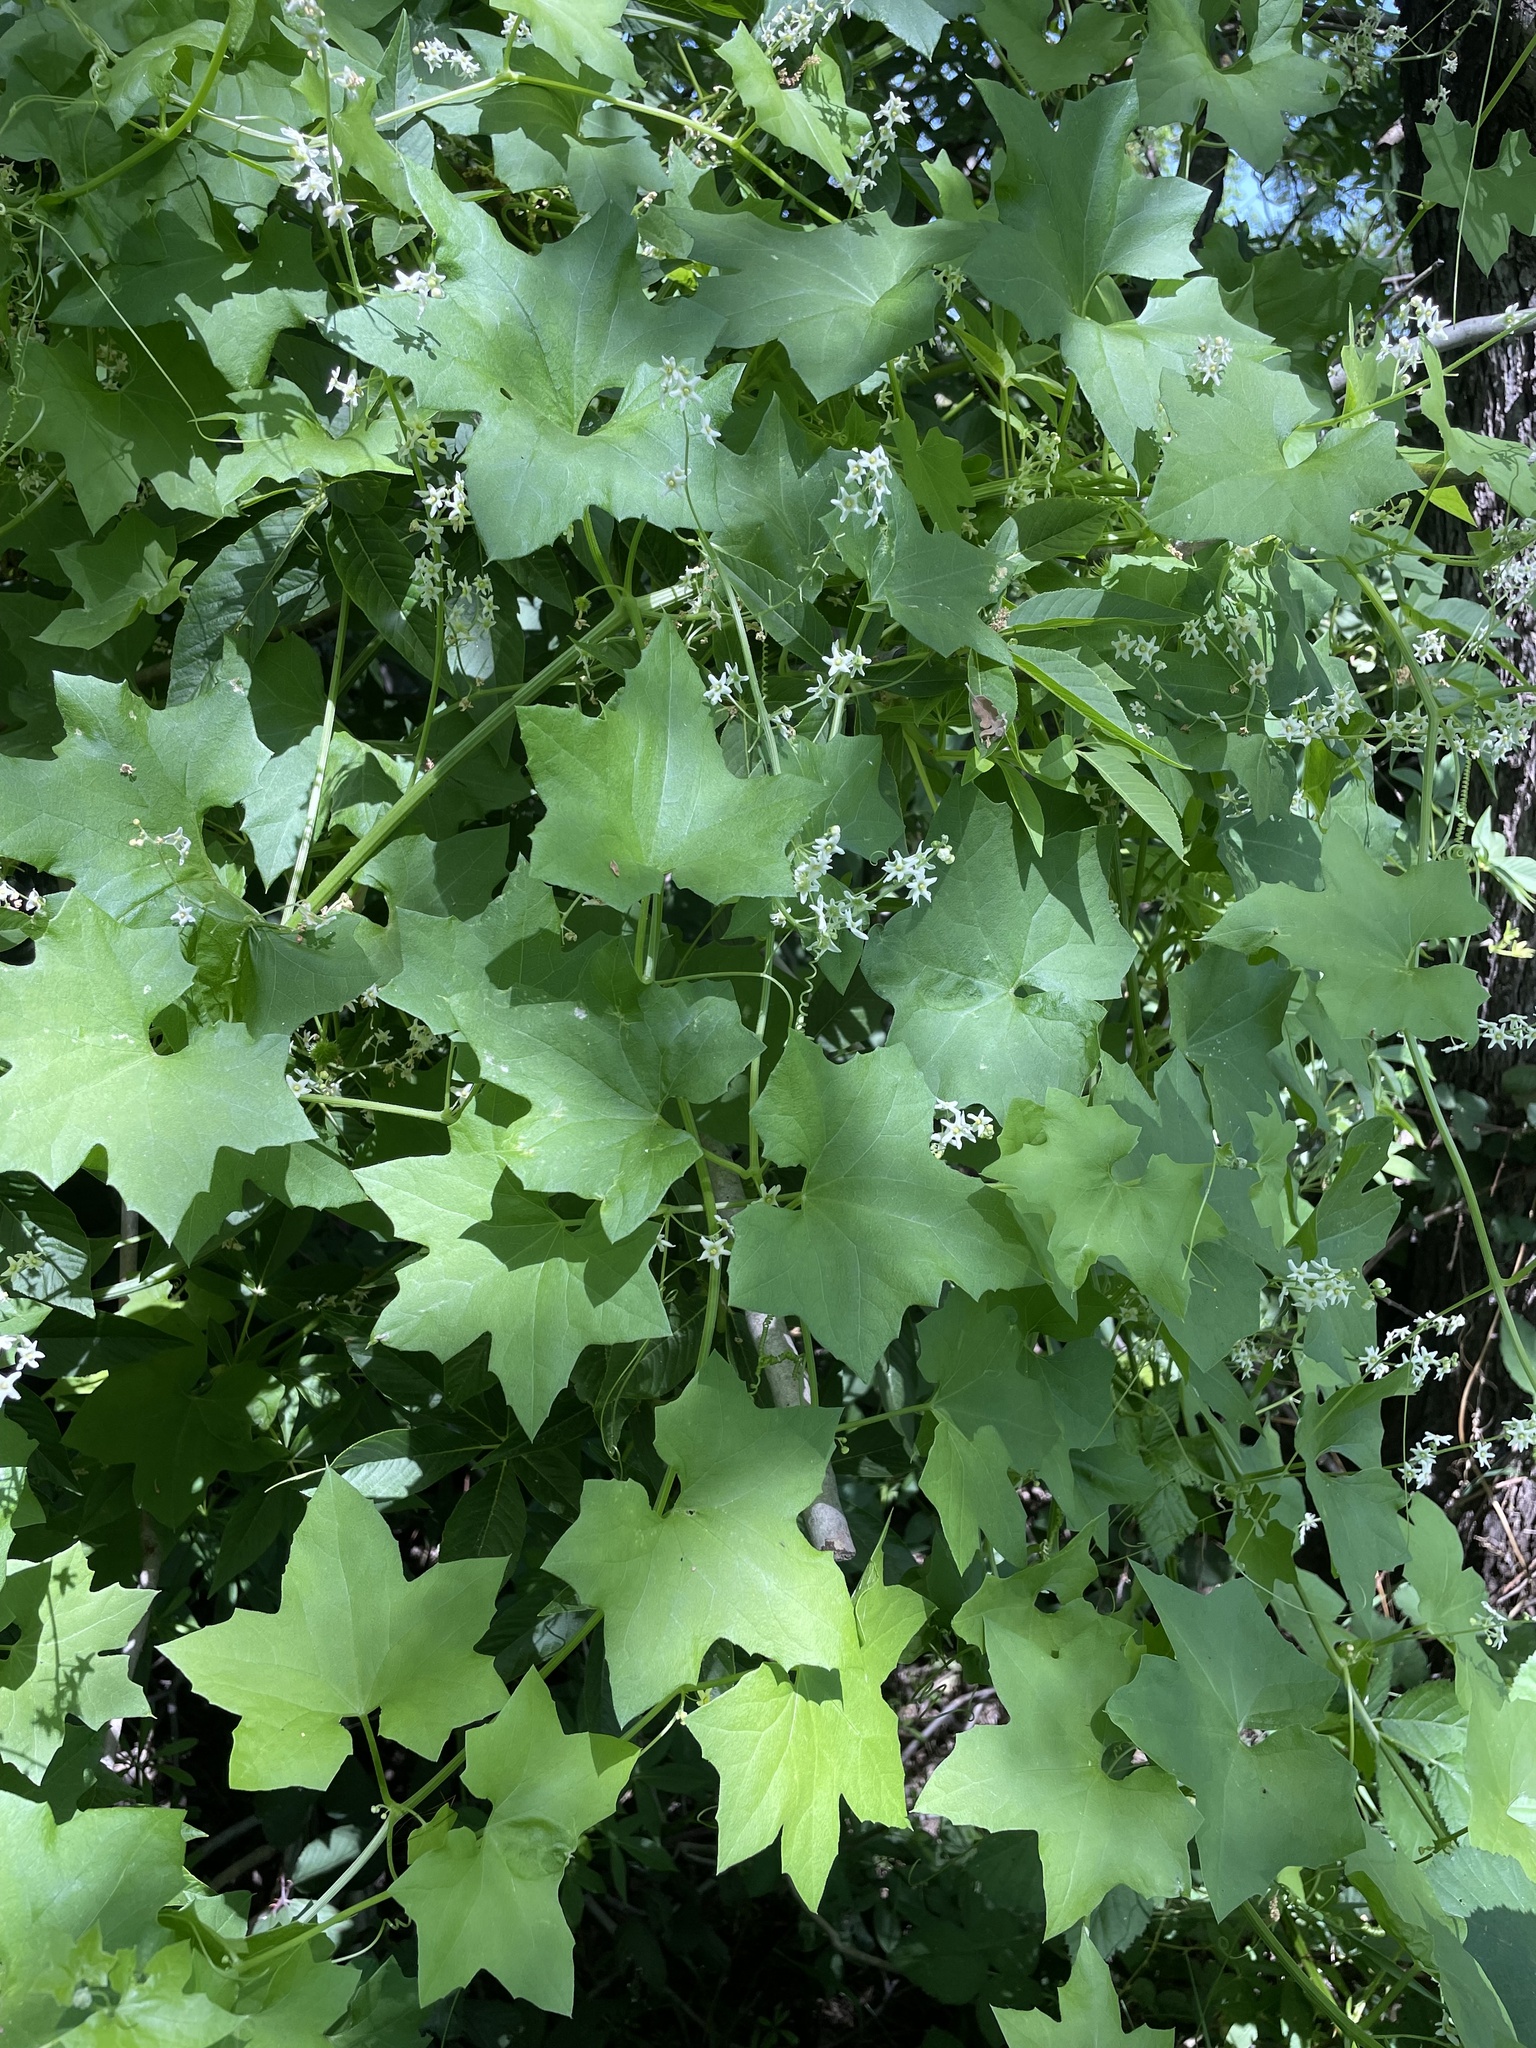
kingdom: Plantae
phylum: Tracheophyta
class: Magnoliopsida
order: Cucurbitales
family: Cucurbitaceae
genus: Marah
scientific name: Marah fabacea
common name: California manroot
